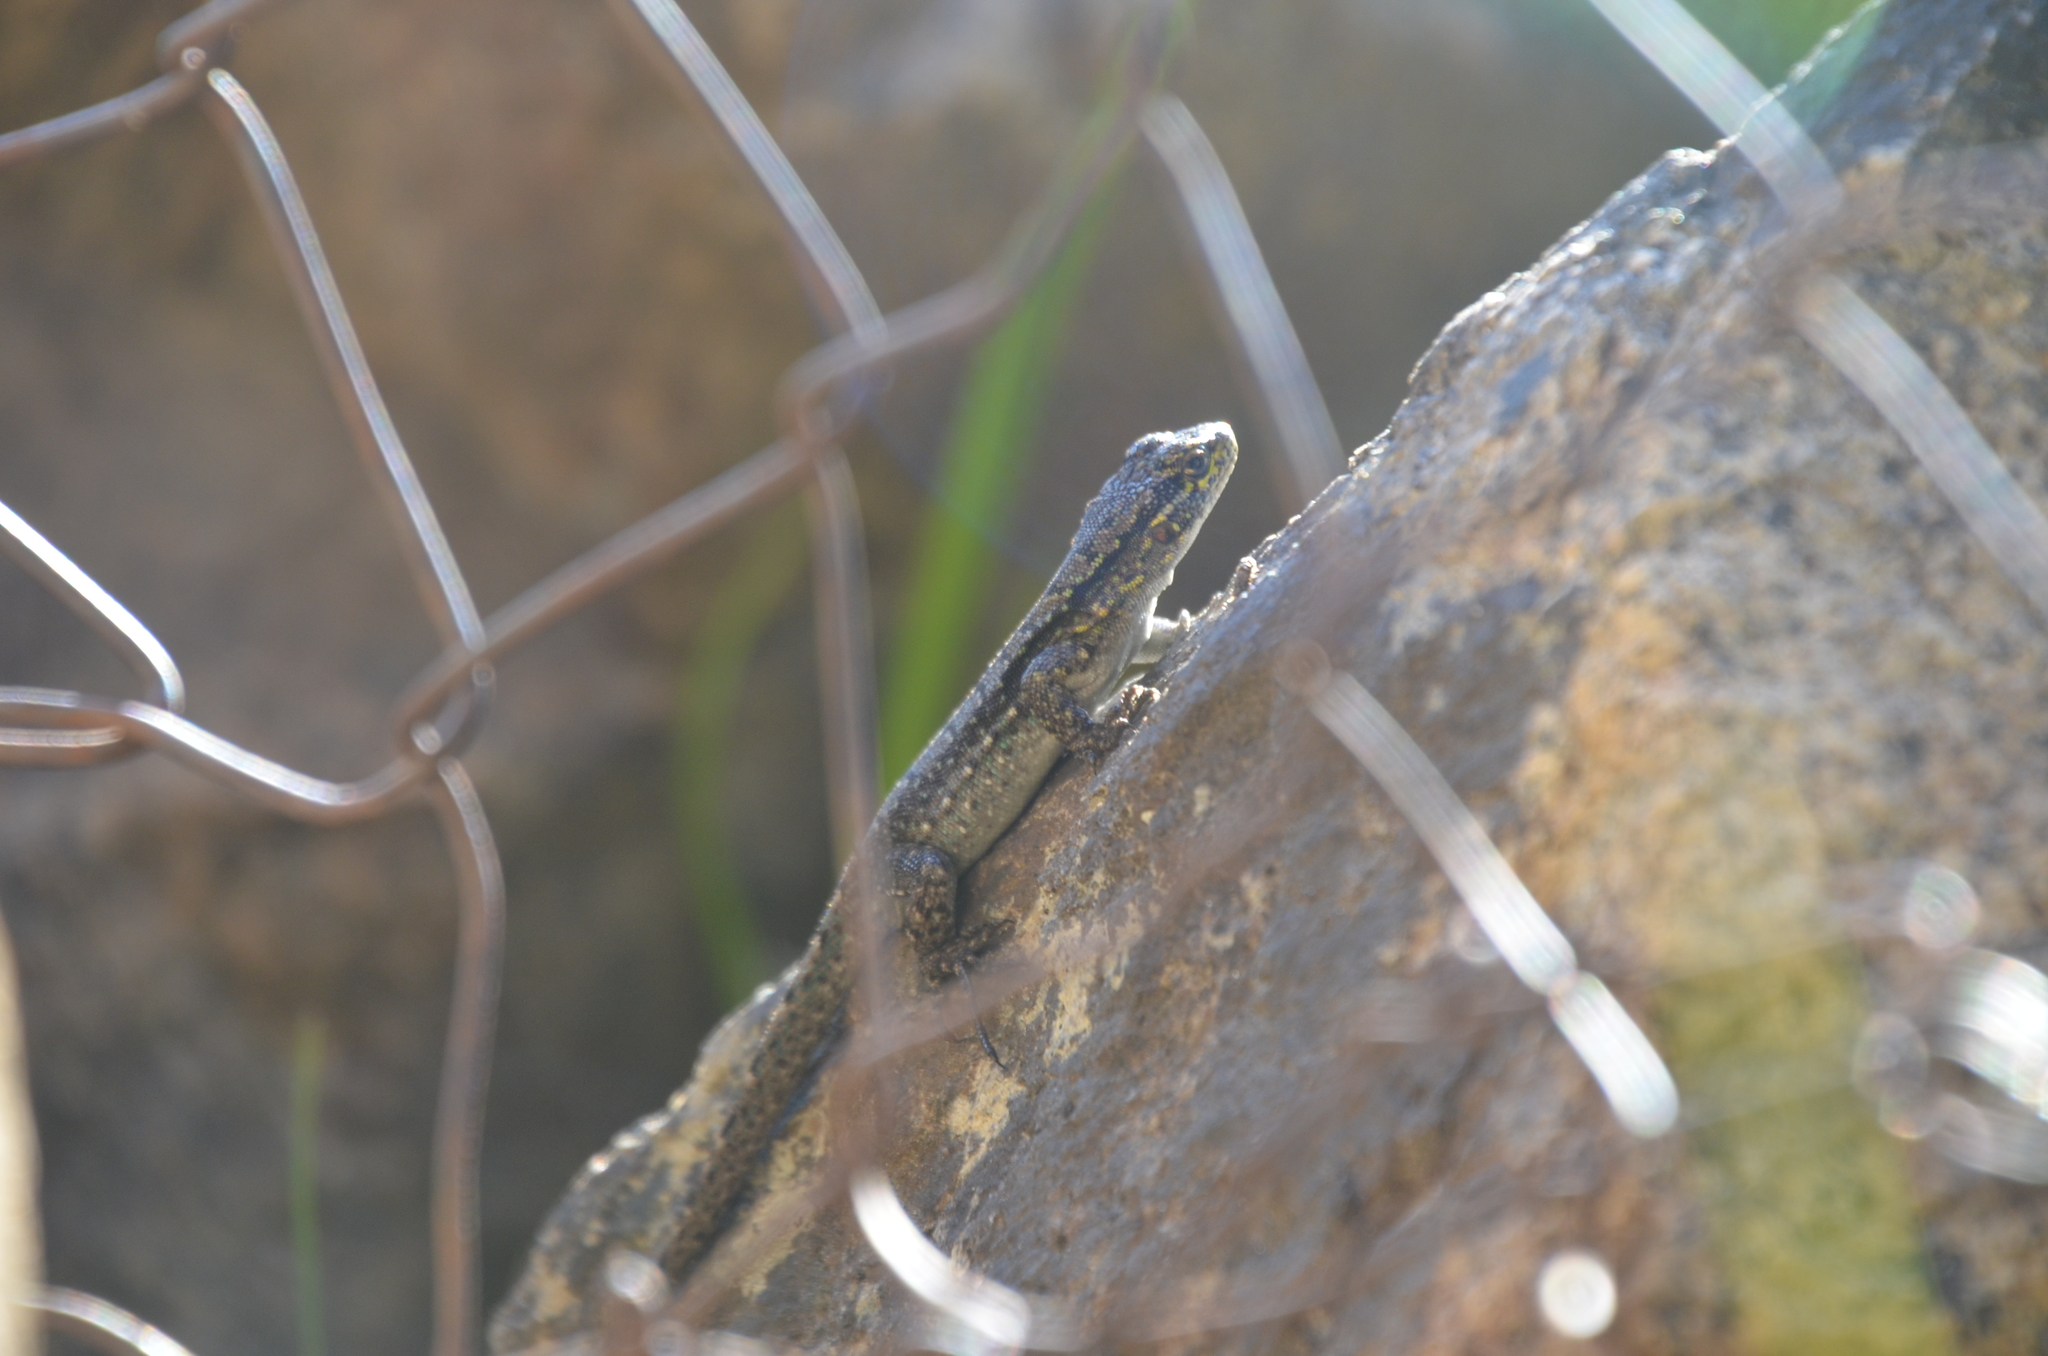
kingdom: Animalia
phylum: Chordata
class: Squamata
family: Liolaemidae
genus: Liolaemus
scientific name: Liolaemus tenuis
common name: Thin tree iguana
